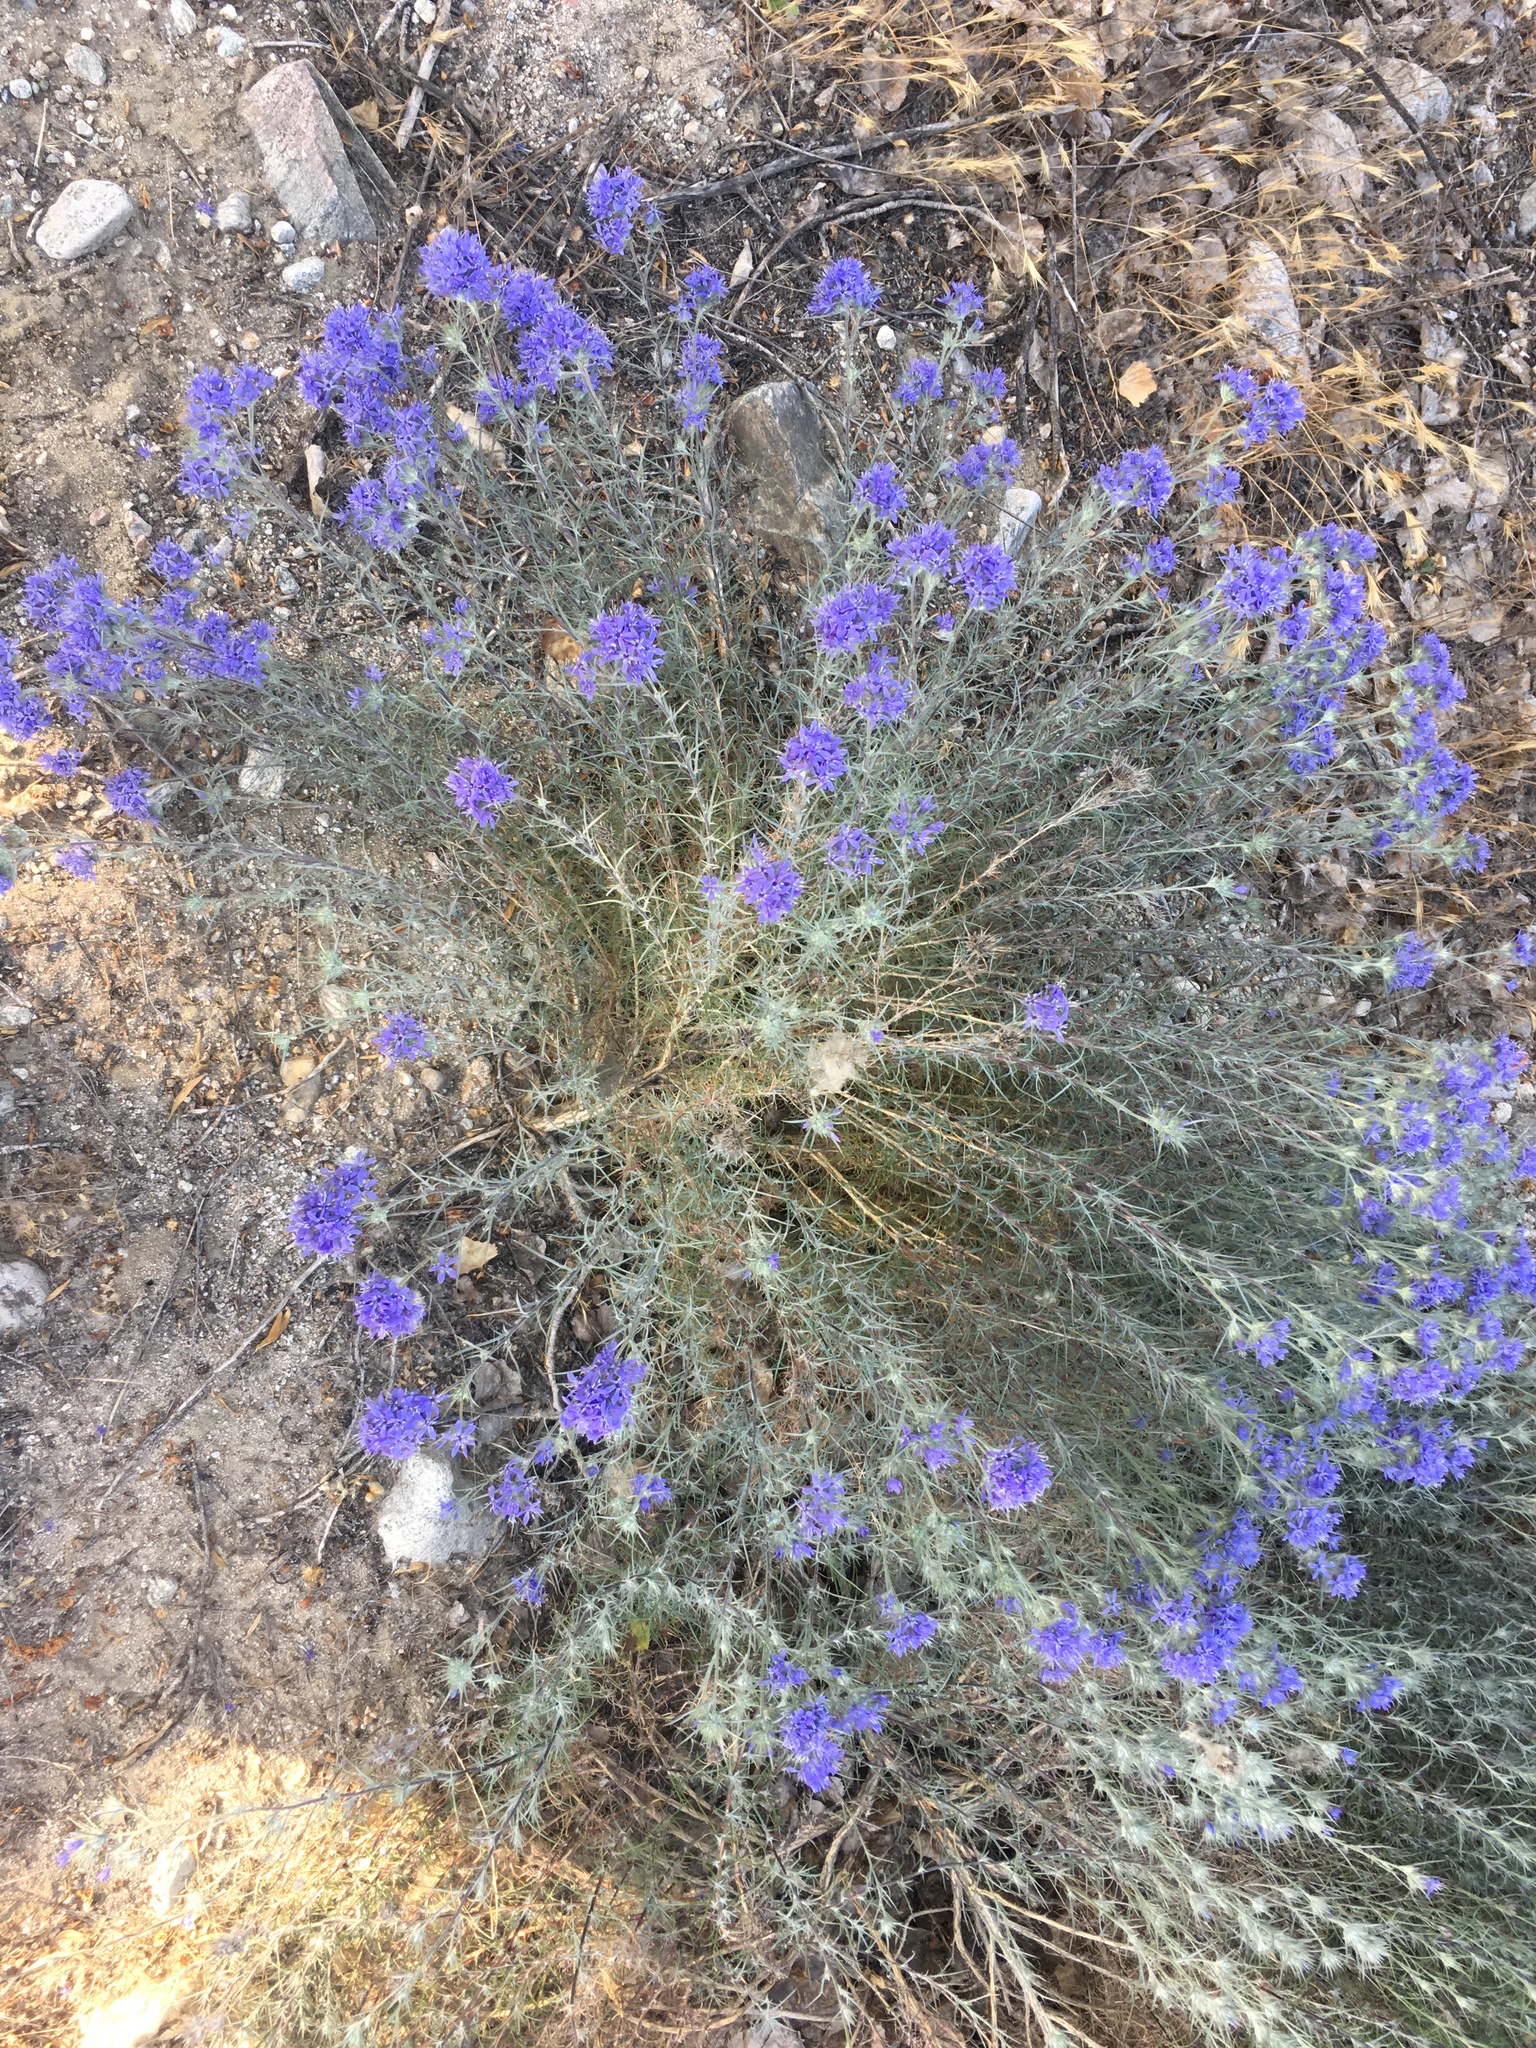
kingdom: Plantae
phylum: Tracheophyta
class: Magnoliopsida
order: Ericales
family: Polemoniaceae
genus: Eriastrum
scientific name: Eriastrum densifolium
